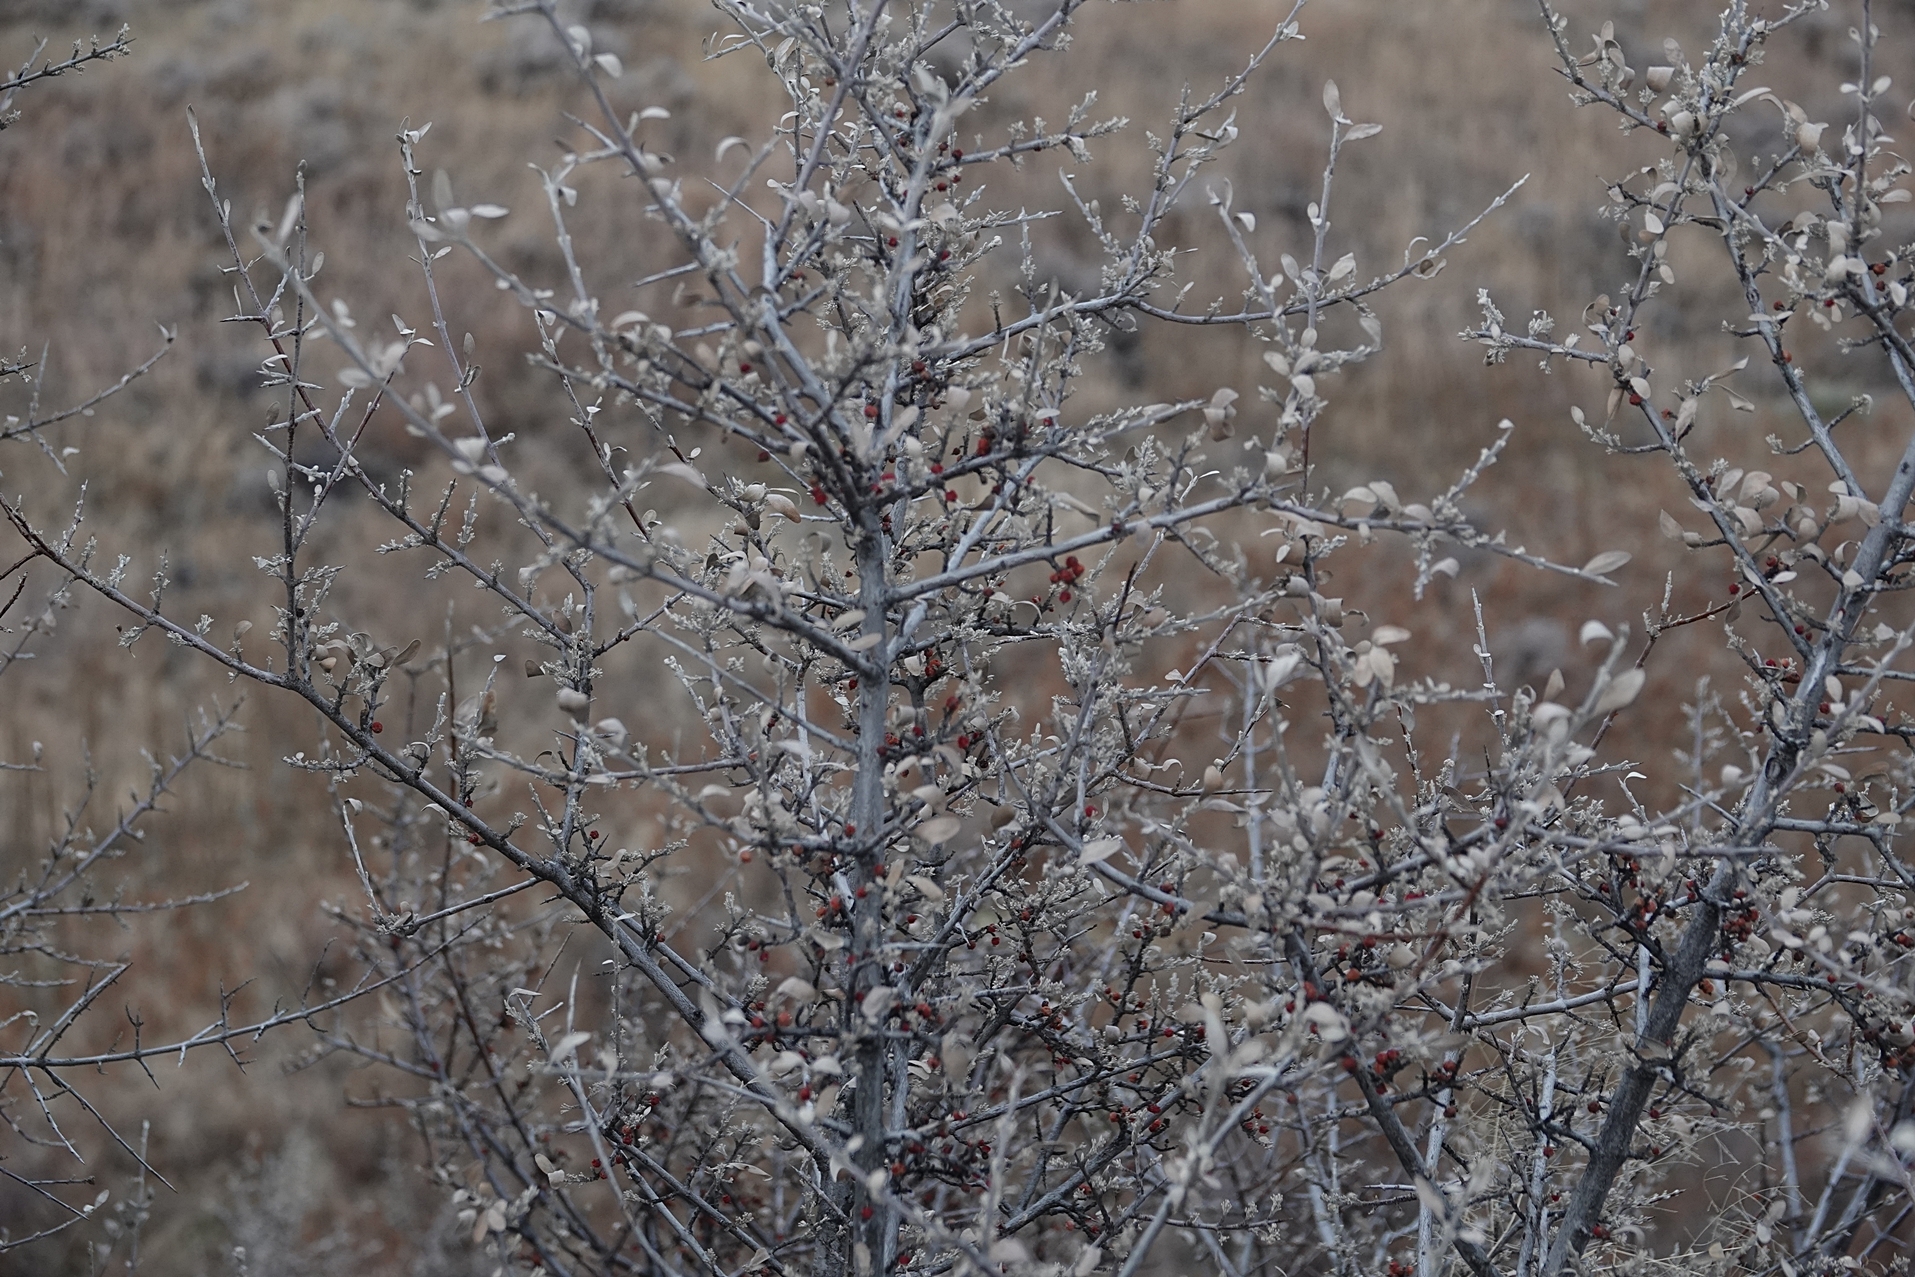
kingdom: Plantae
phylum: Tracheophyta
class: Magnoliopsida
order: Rosales
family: Elaeagnaceae
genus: Shepherdia
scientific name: Shepherdia argentea
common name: Silver buffaloberry
